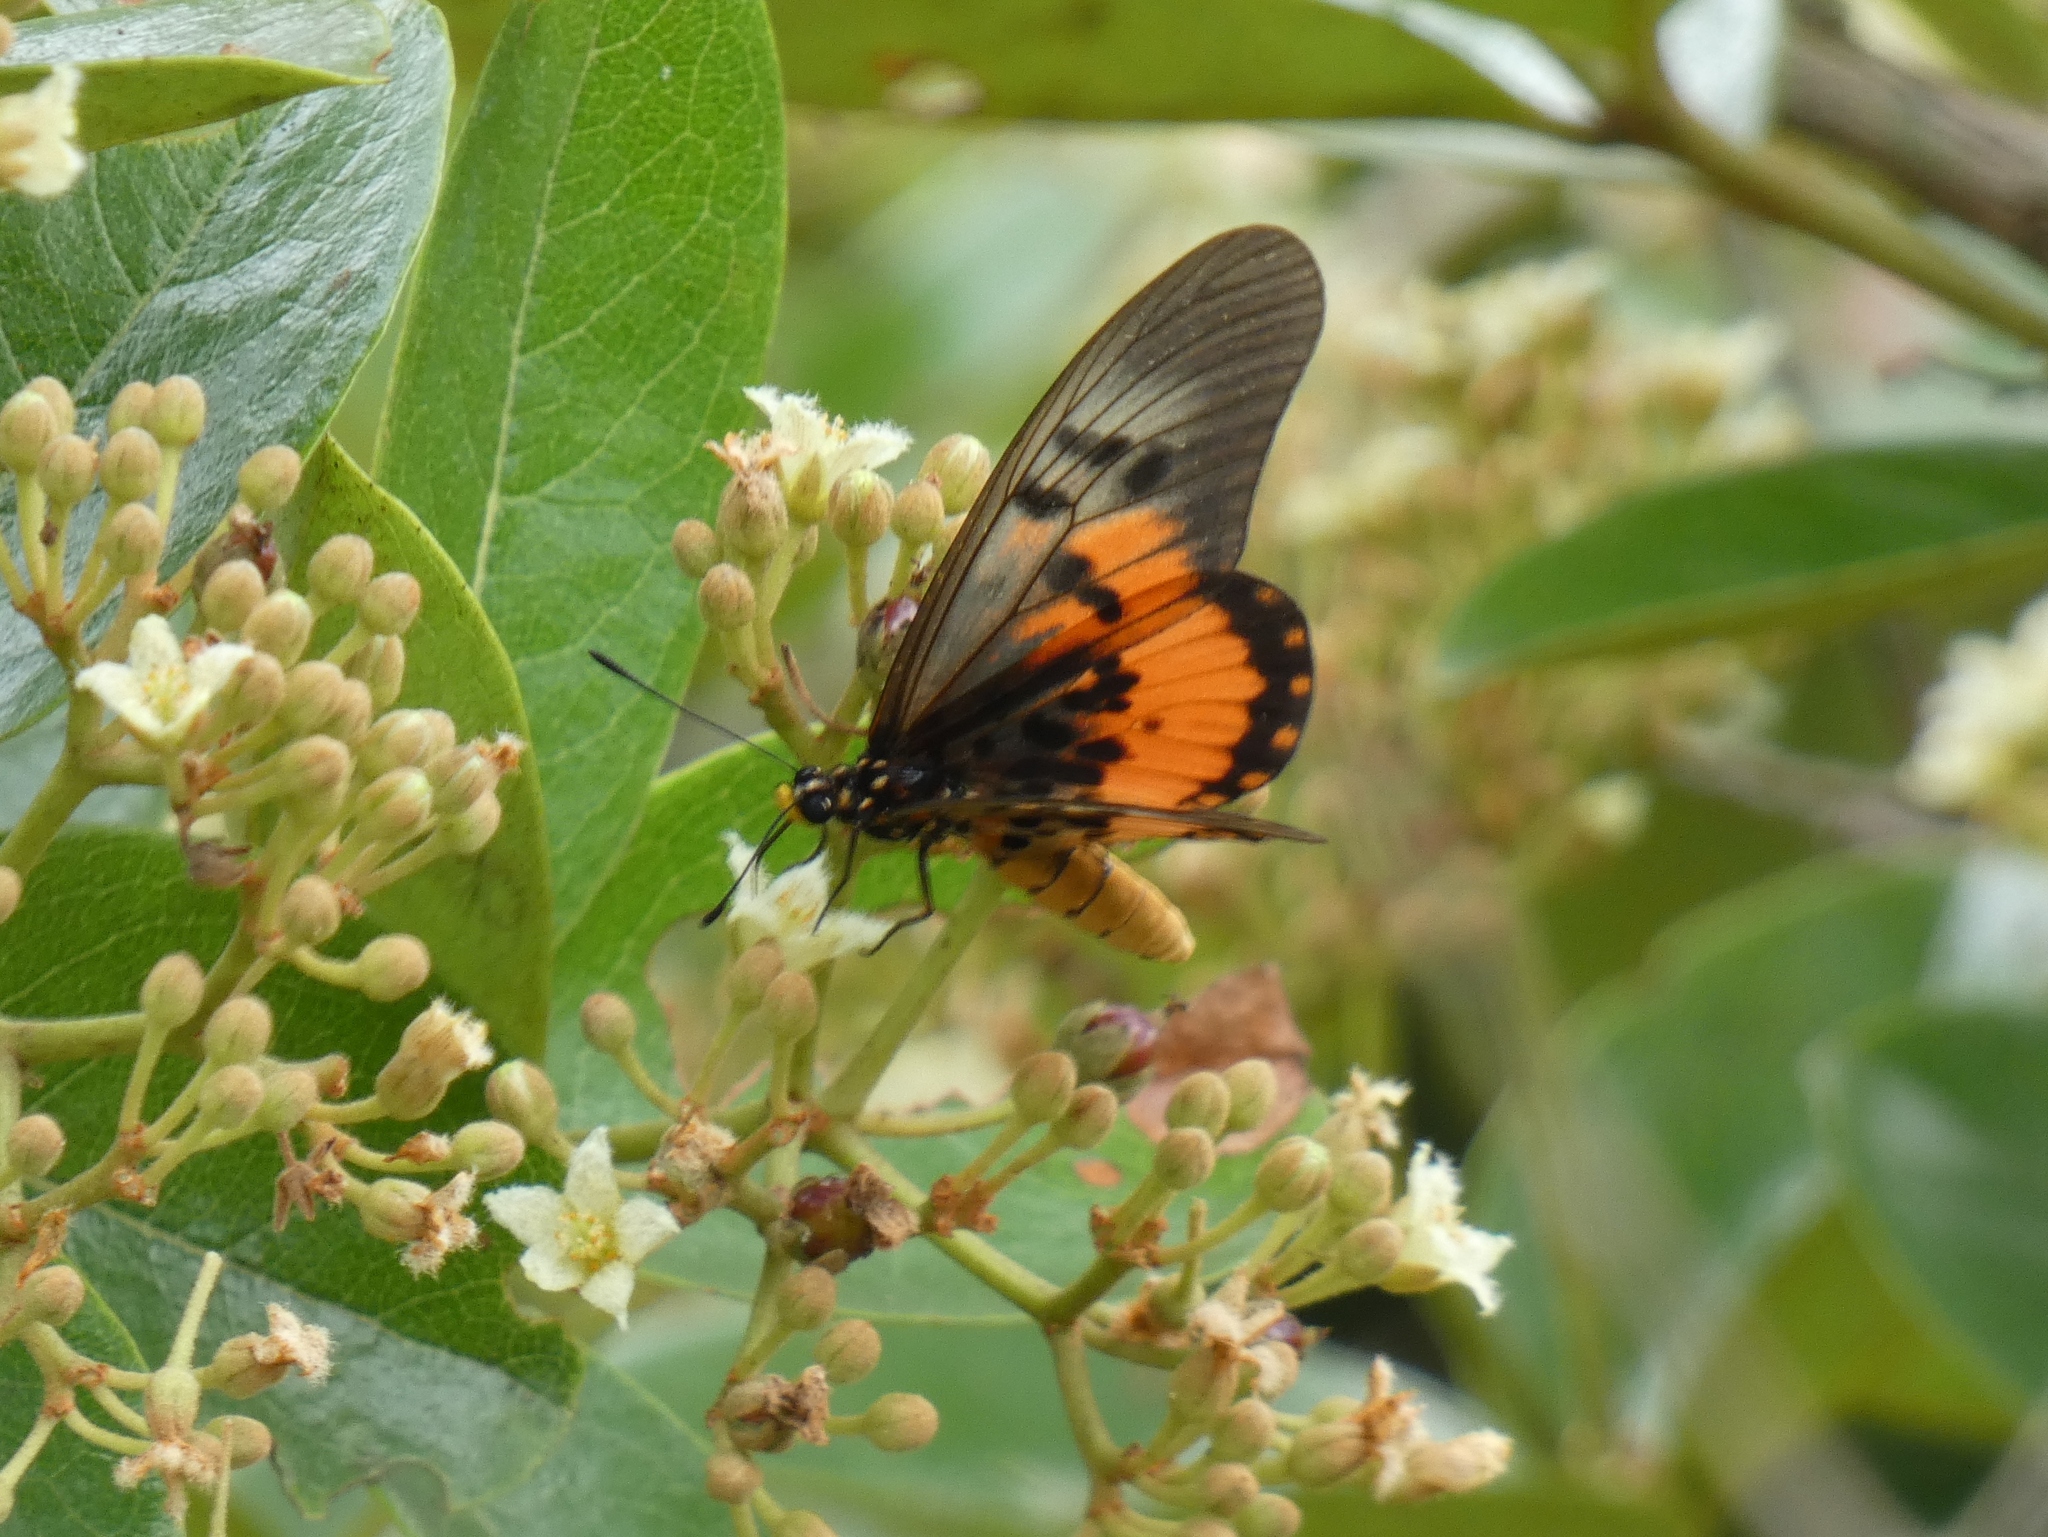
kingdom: Animalia
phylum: Arthropoda
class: Insecta
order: Lepidoptera
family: Nymphalidae
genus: Acraea
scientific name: Acraea
